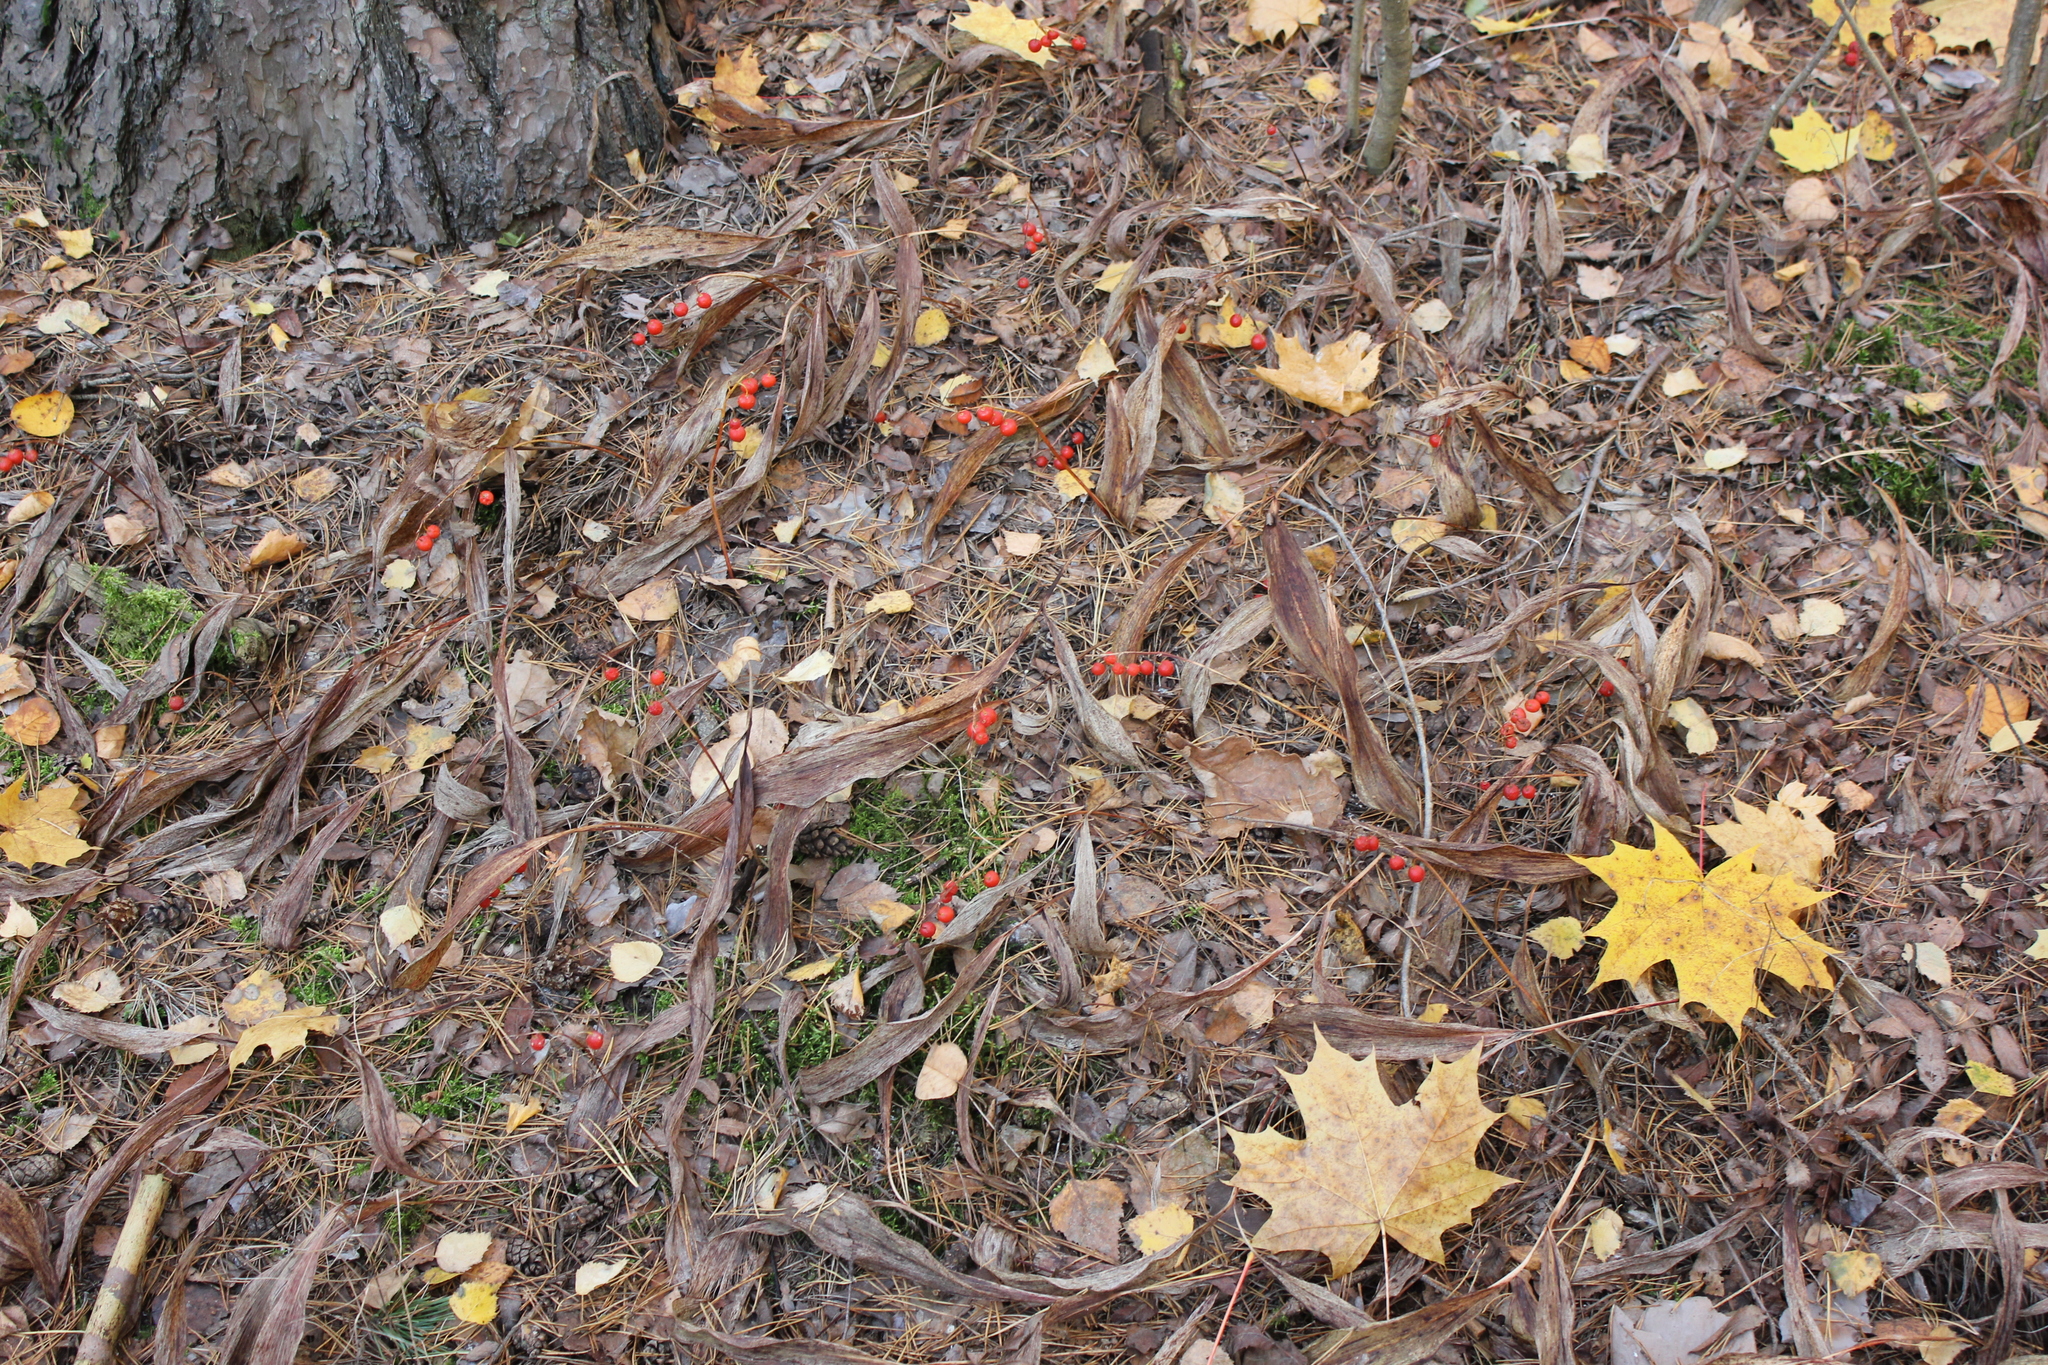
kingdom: Plantae
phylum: Tracheophyta
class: Liliopsida
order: Asparagales
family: Asparagaceae
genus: Convallaria
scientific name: Convallaria majalis
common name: Lily-of-the-valley
